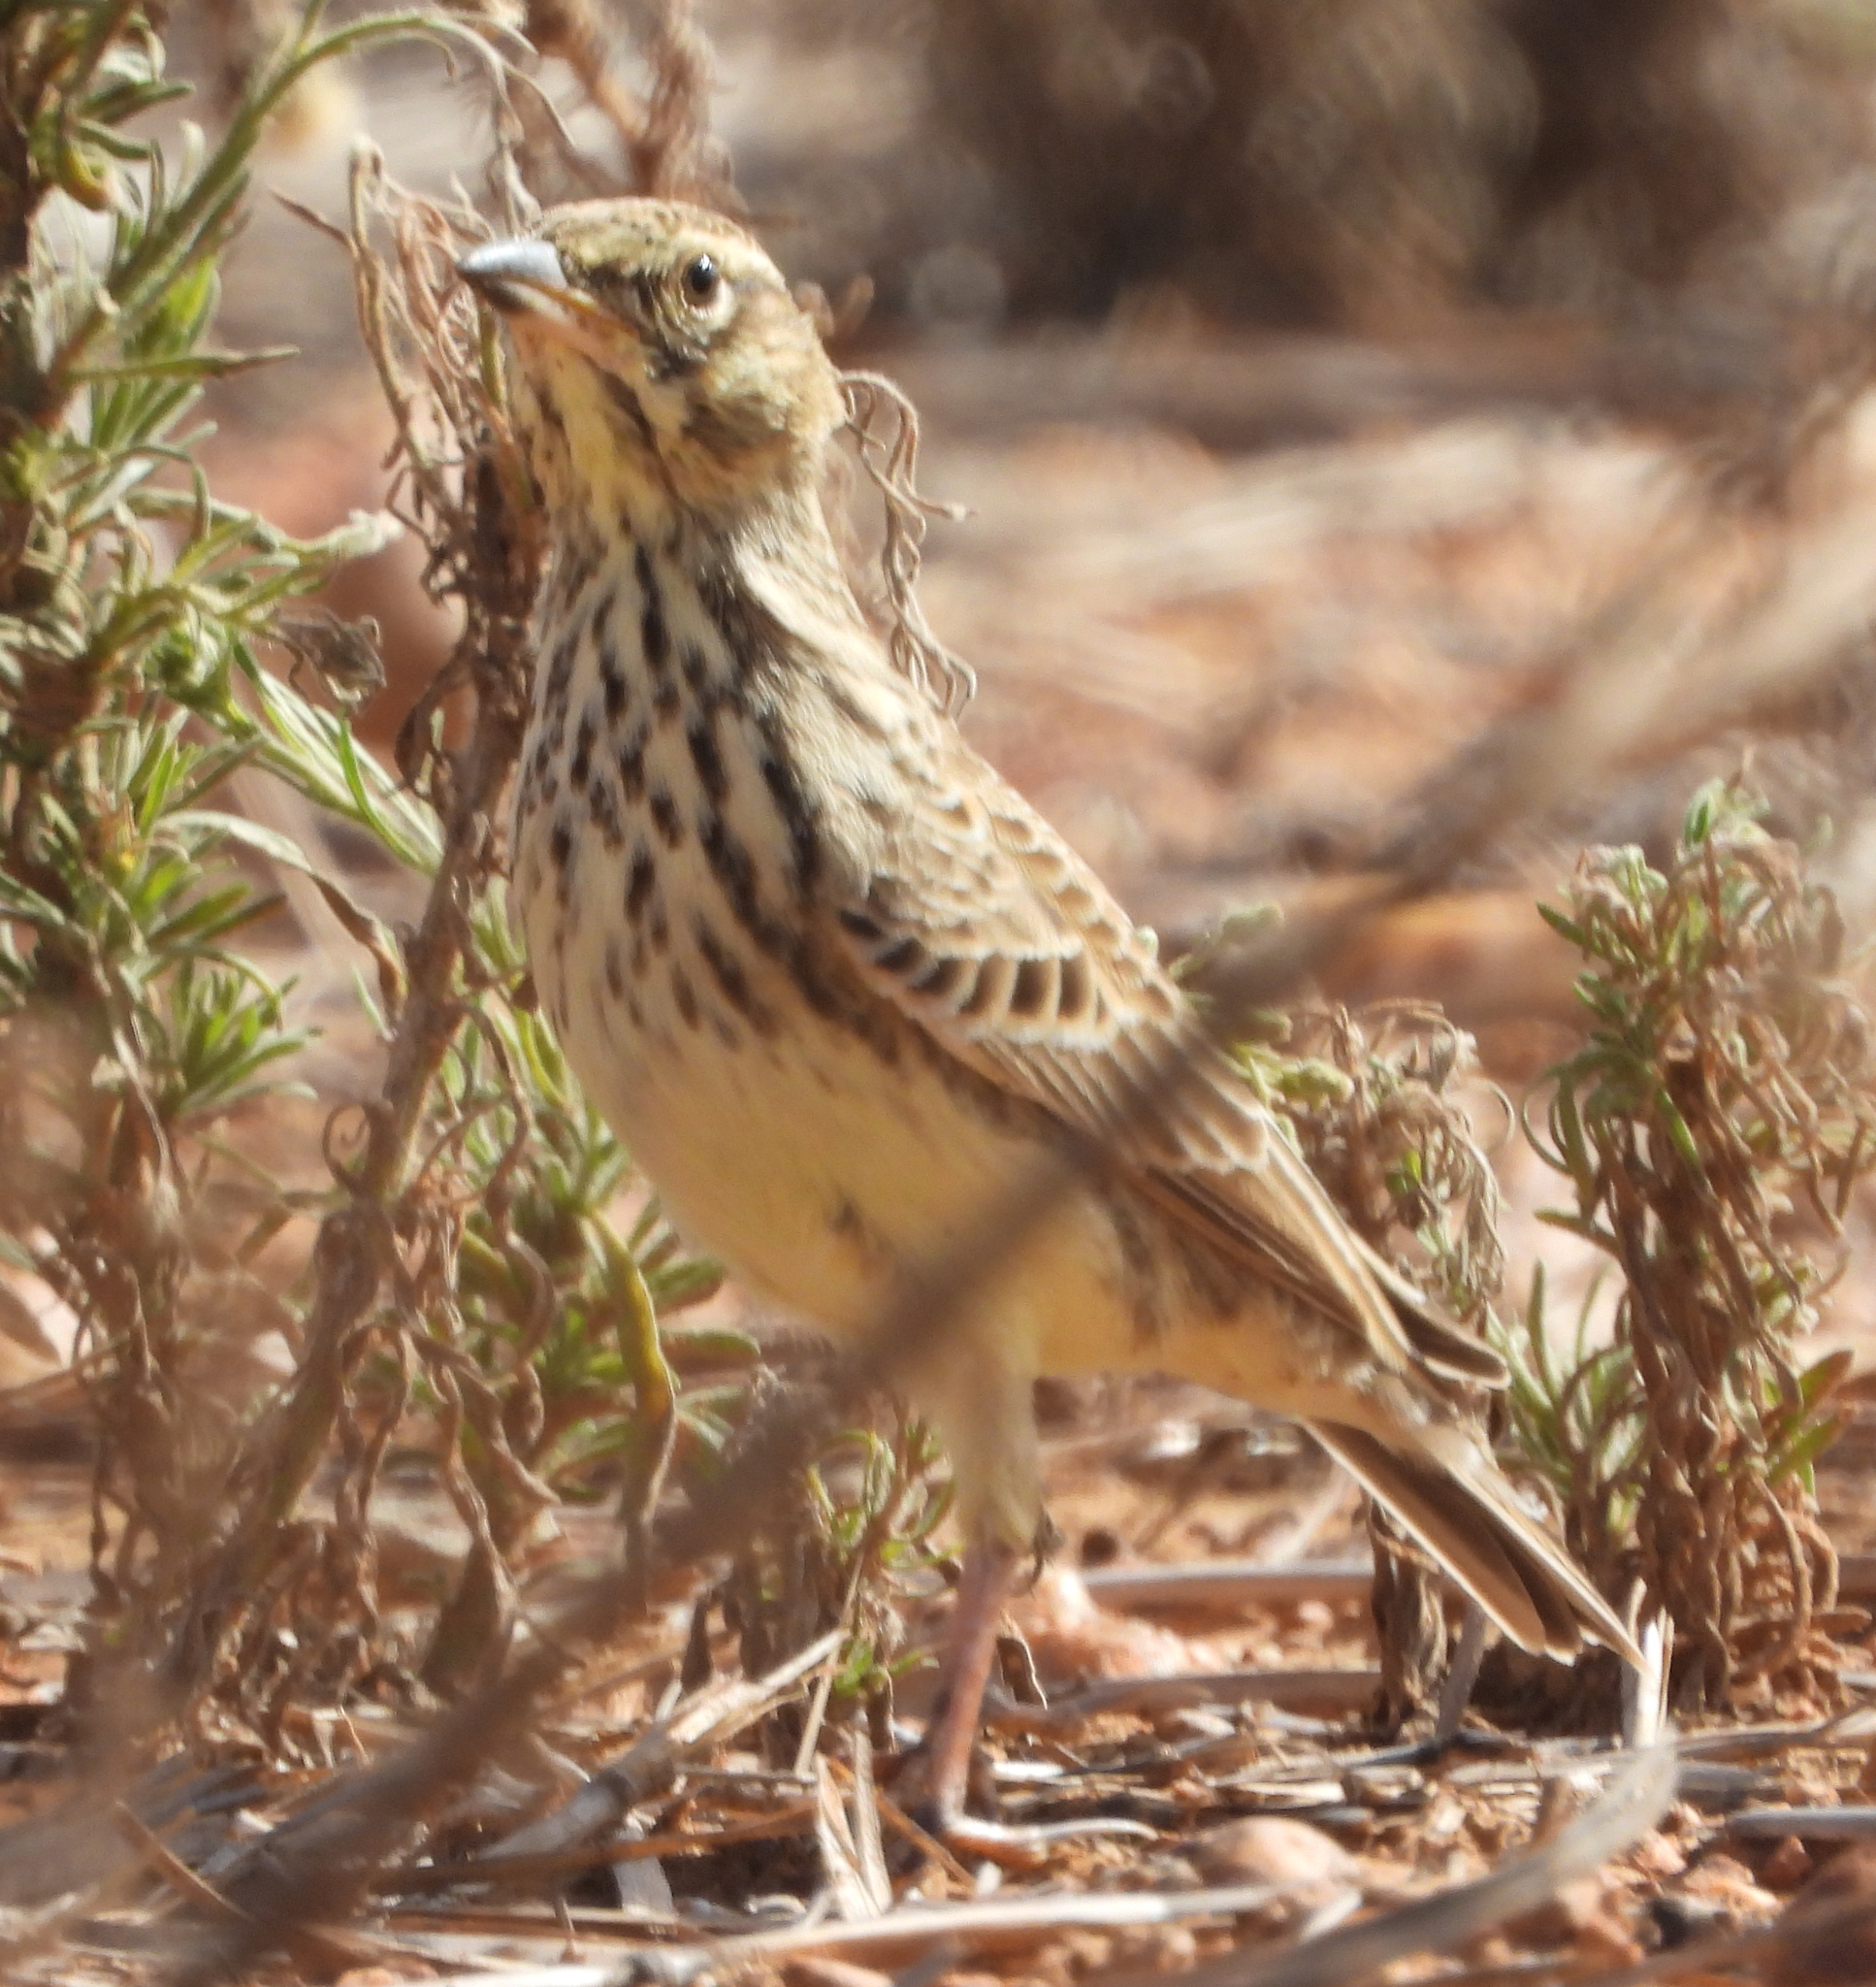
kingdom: Animalia
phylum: Chordata
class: Aves
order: Passeriformes
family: Alaudidae
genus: Galerida
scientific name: Galerida magnirostris
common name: Large-billed lark
